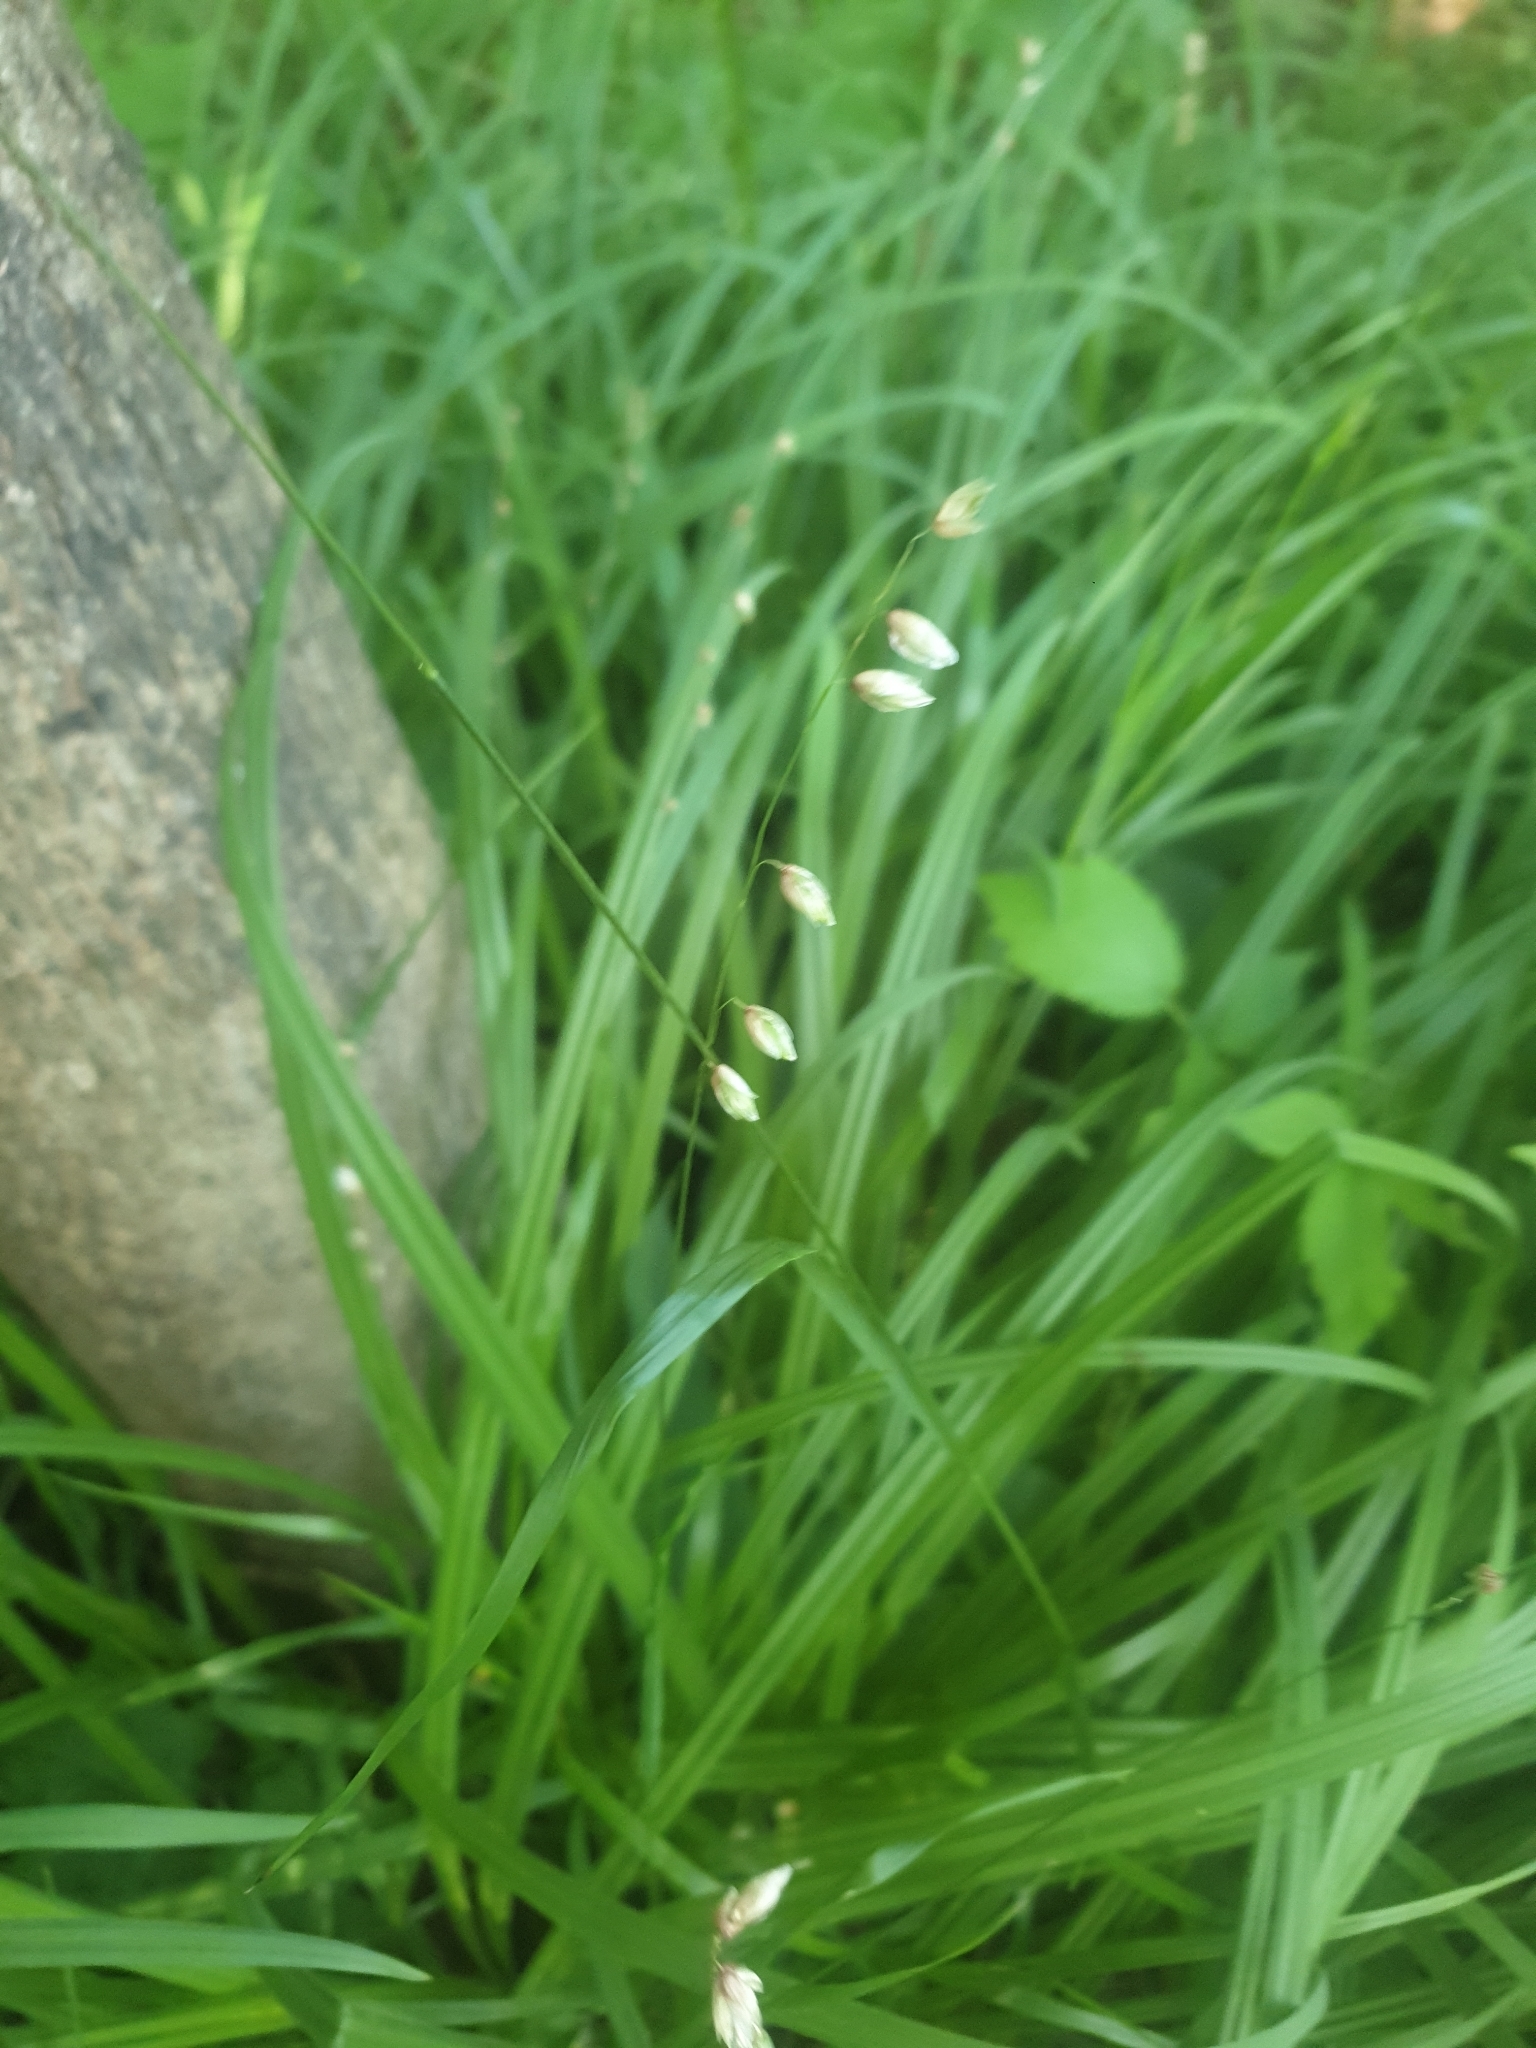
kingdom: Plantae
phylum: Tracheophyta
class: Liliopsida
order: Poales
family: Poaceae
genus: Melica
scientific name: Melica nutans
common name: Mountain melick
